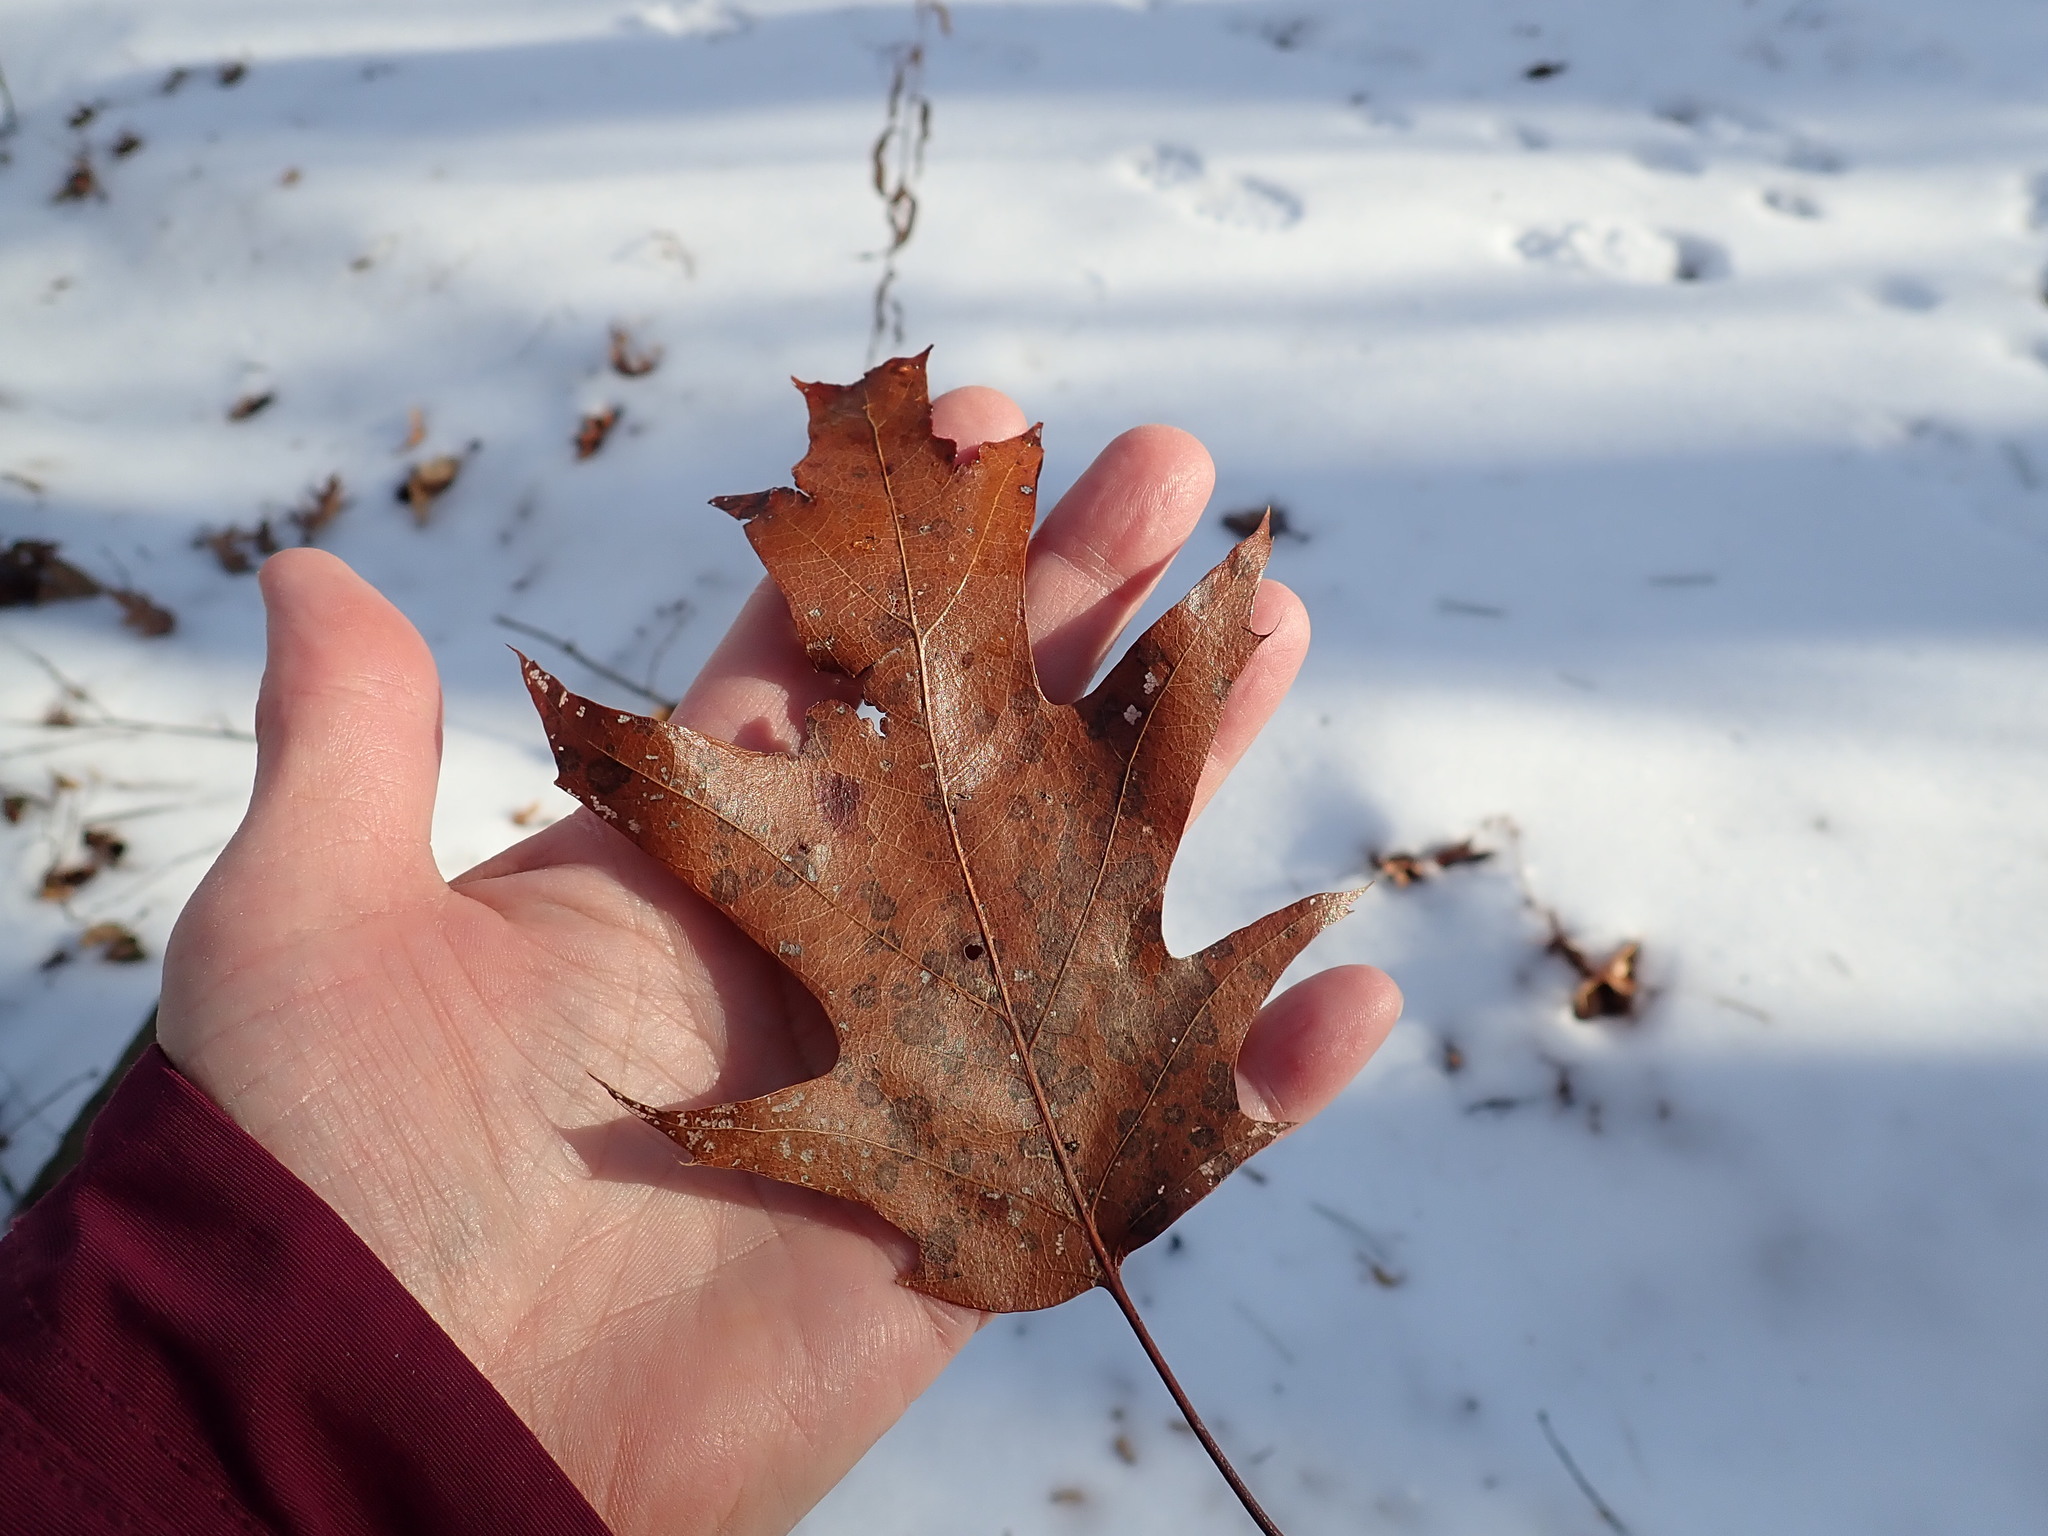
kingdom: Plantae
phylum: Tracheophyta
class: Magnoliopsida
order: Fagales
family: Fagaceae
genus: Quercus
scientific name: Quercus rubra
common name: Red oak
